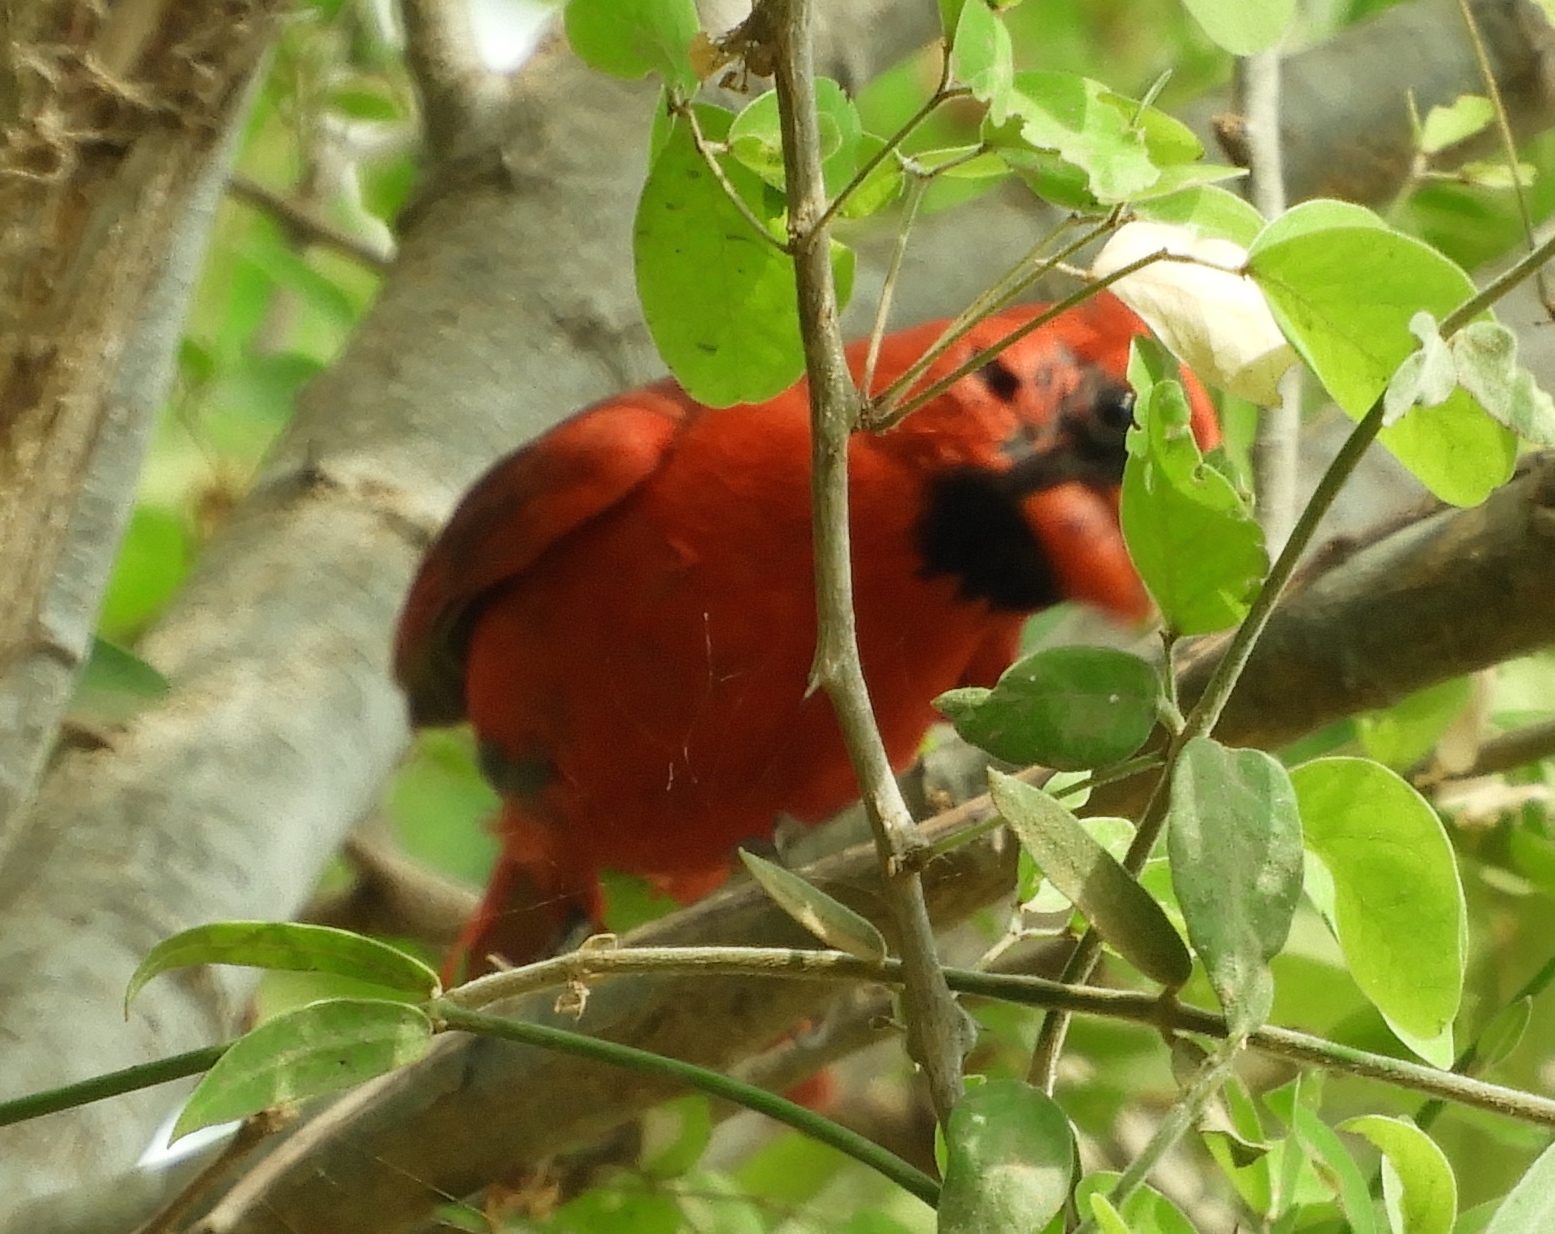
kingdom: Animalia
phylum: Chordata
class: Aves
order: Passeriformes
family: Cardinalidae
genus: Cardinalis
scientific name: Cardinalis cardinalis
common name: Northern cardinal
